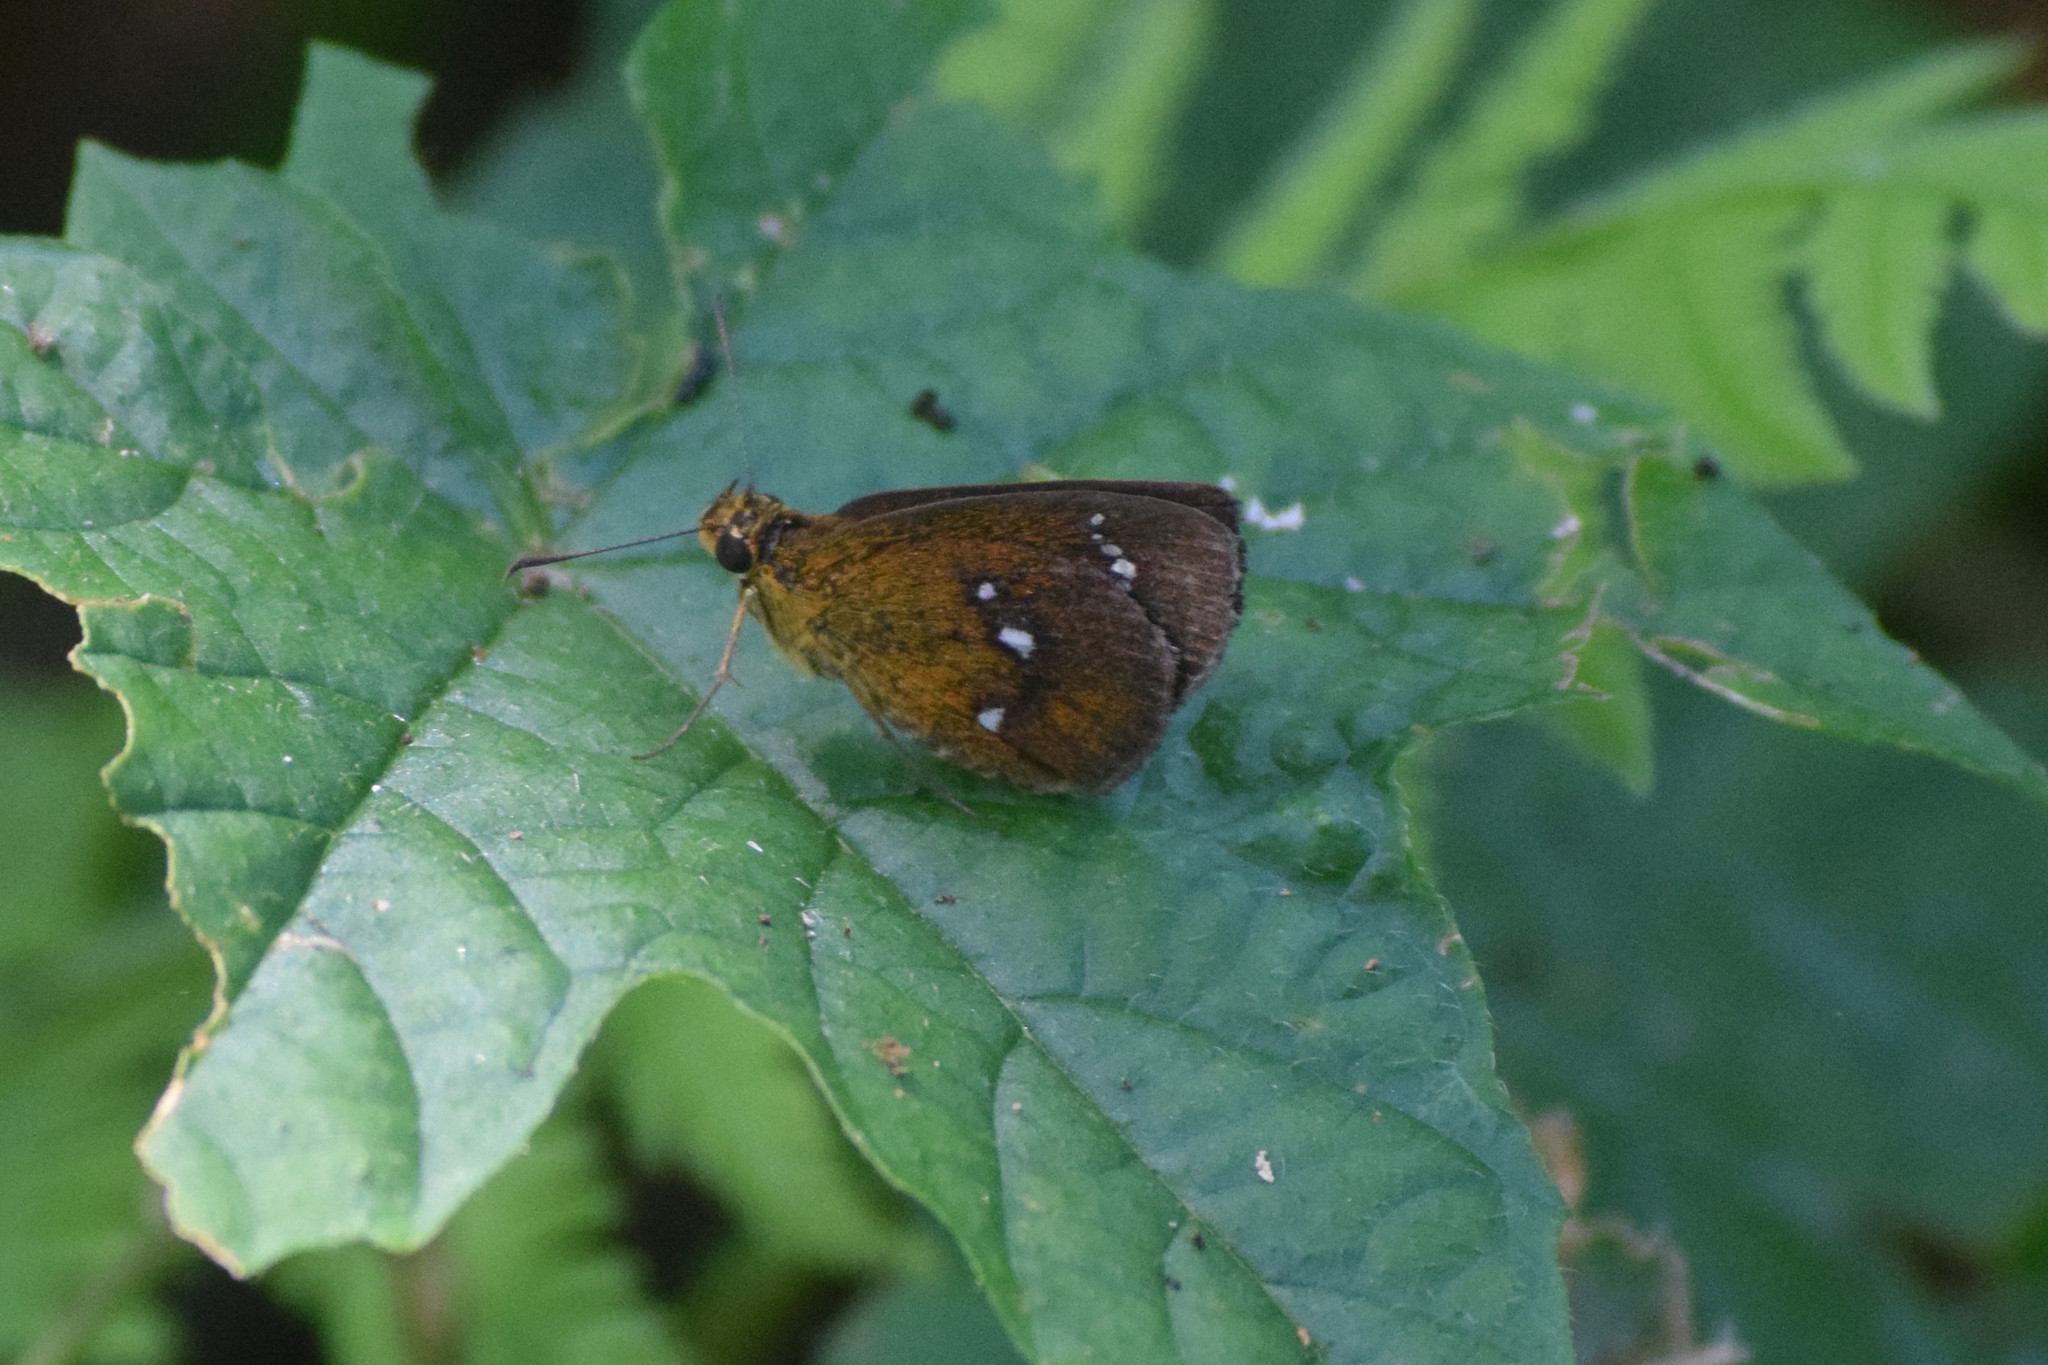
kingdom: Animalia
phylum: Arthropoda
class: Insecta
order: Lepidoptera
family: Hesperiidae
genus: Iambrix
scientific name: Iambrix salsala
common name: Chestnut bob
